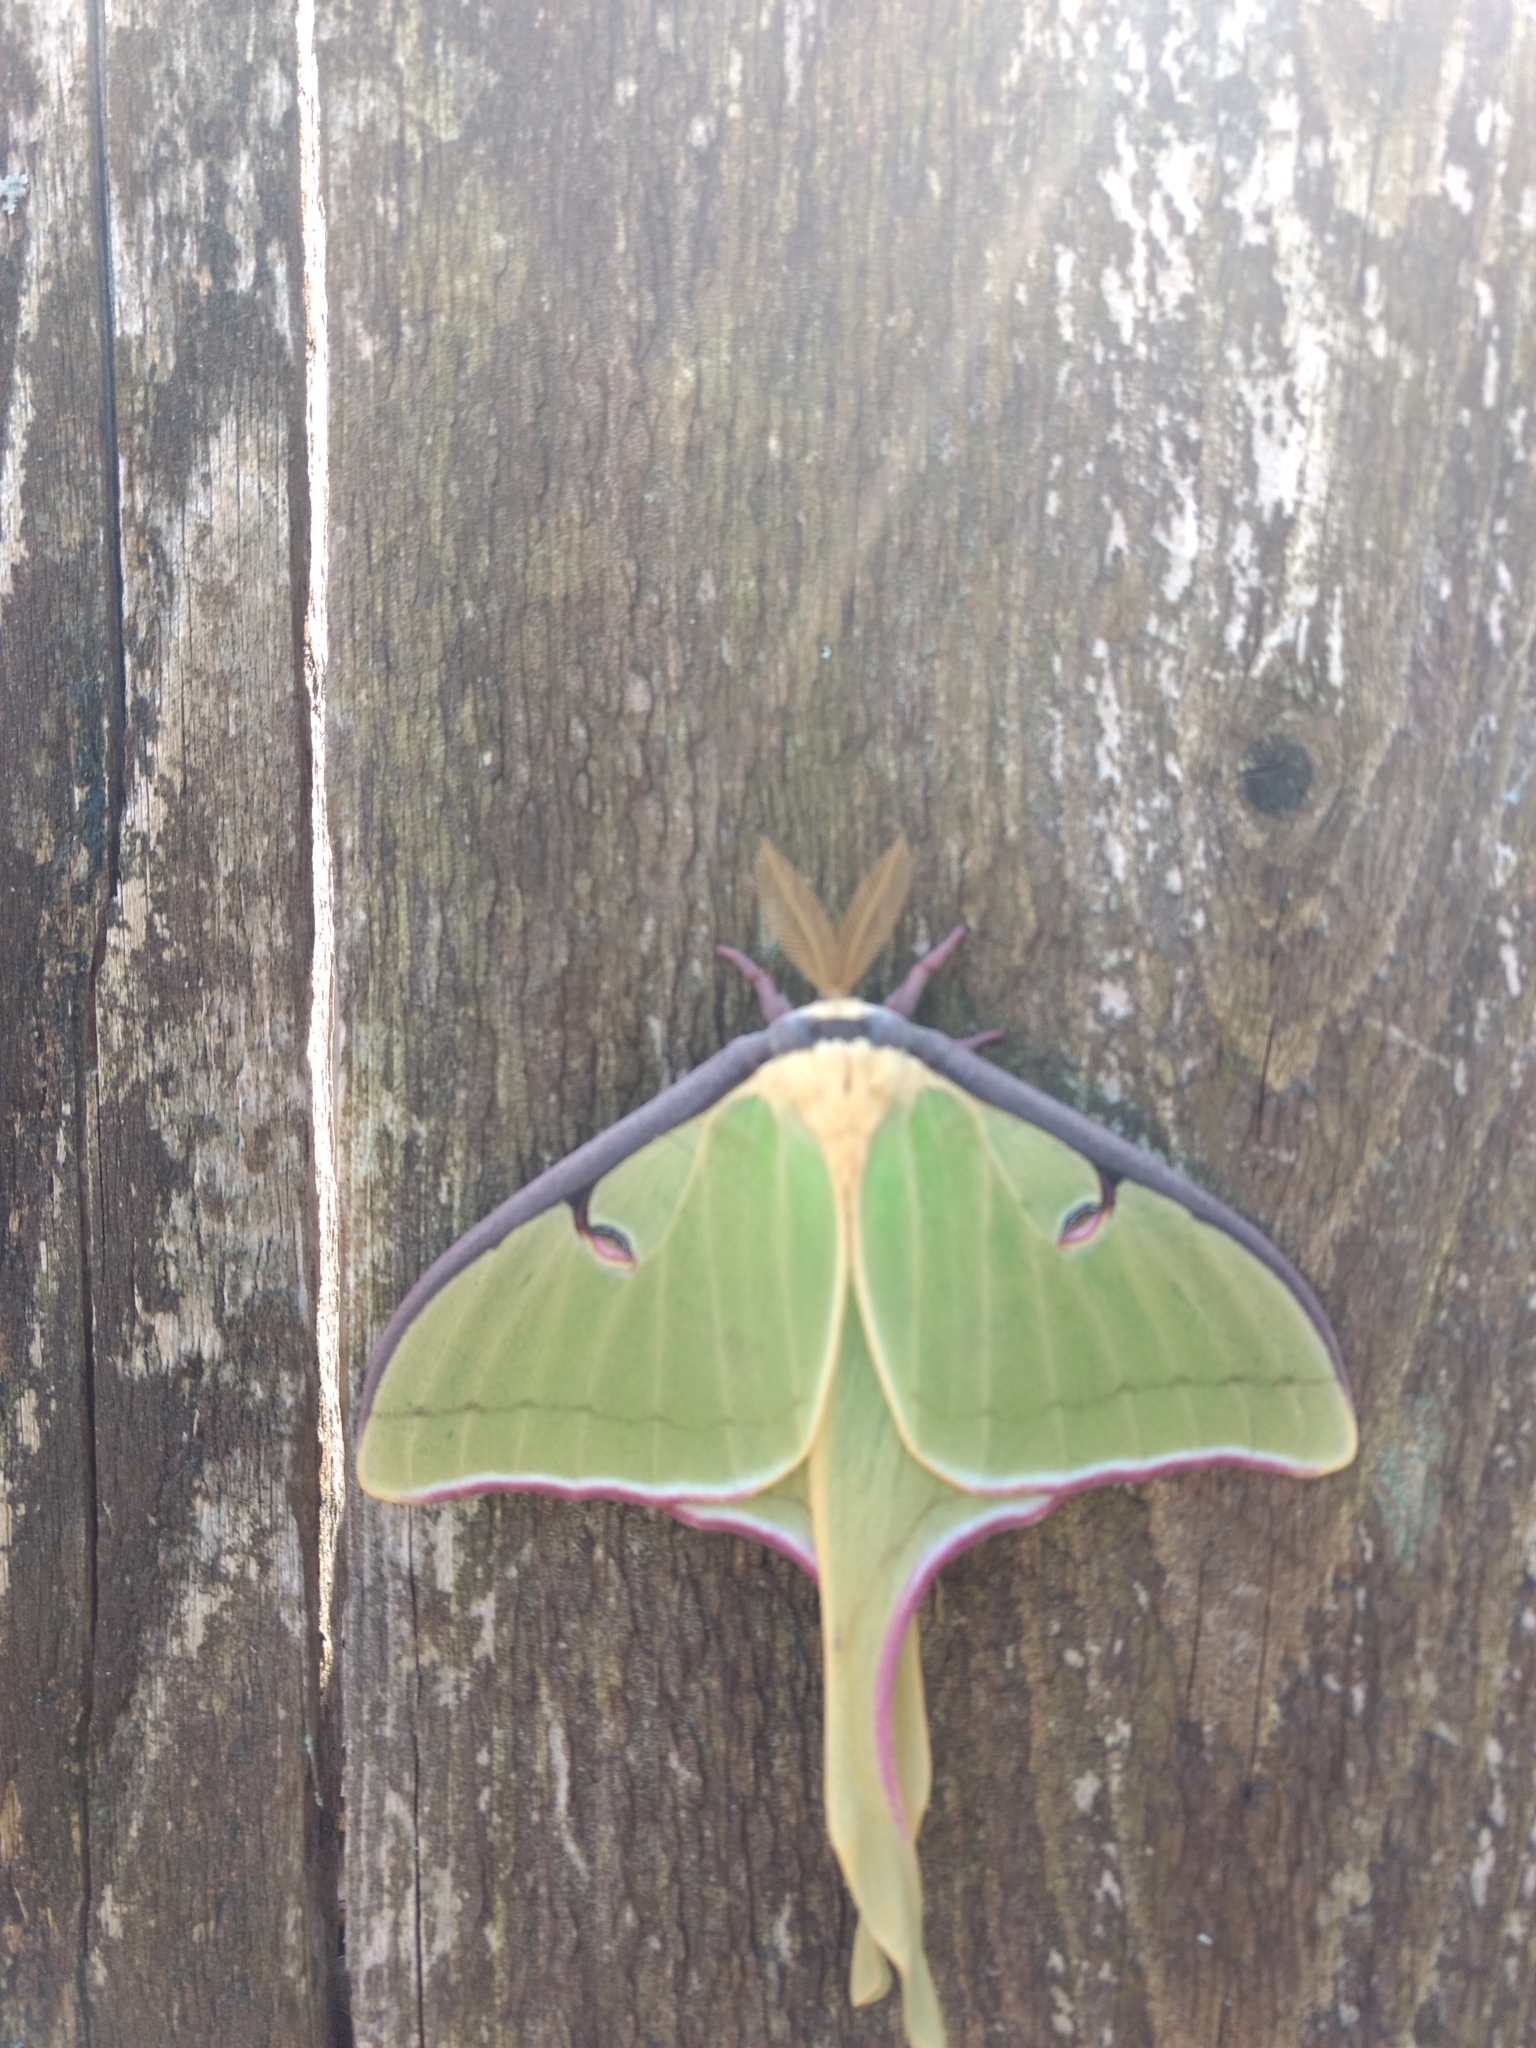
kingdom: Animalia
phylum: Arthropoda
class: Insecta
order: Lepidoptera
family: Saturniidae
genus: Actias
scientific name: Actias luna
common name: Luna moth
